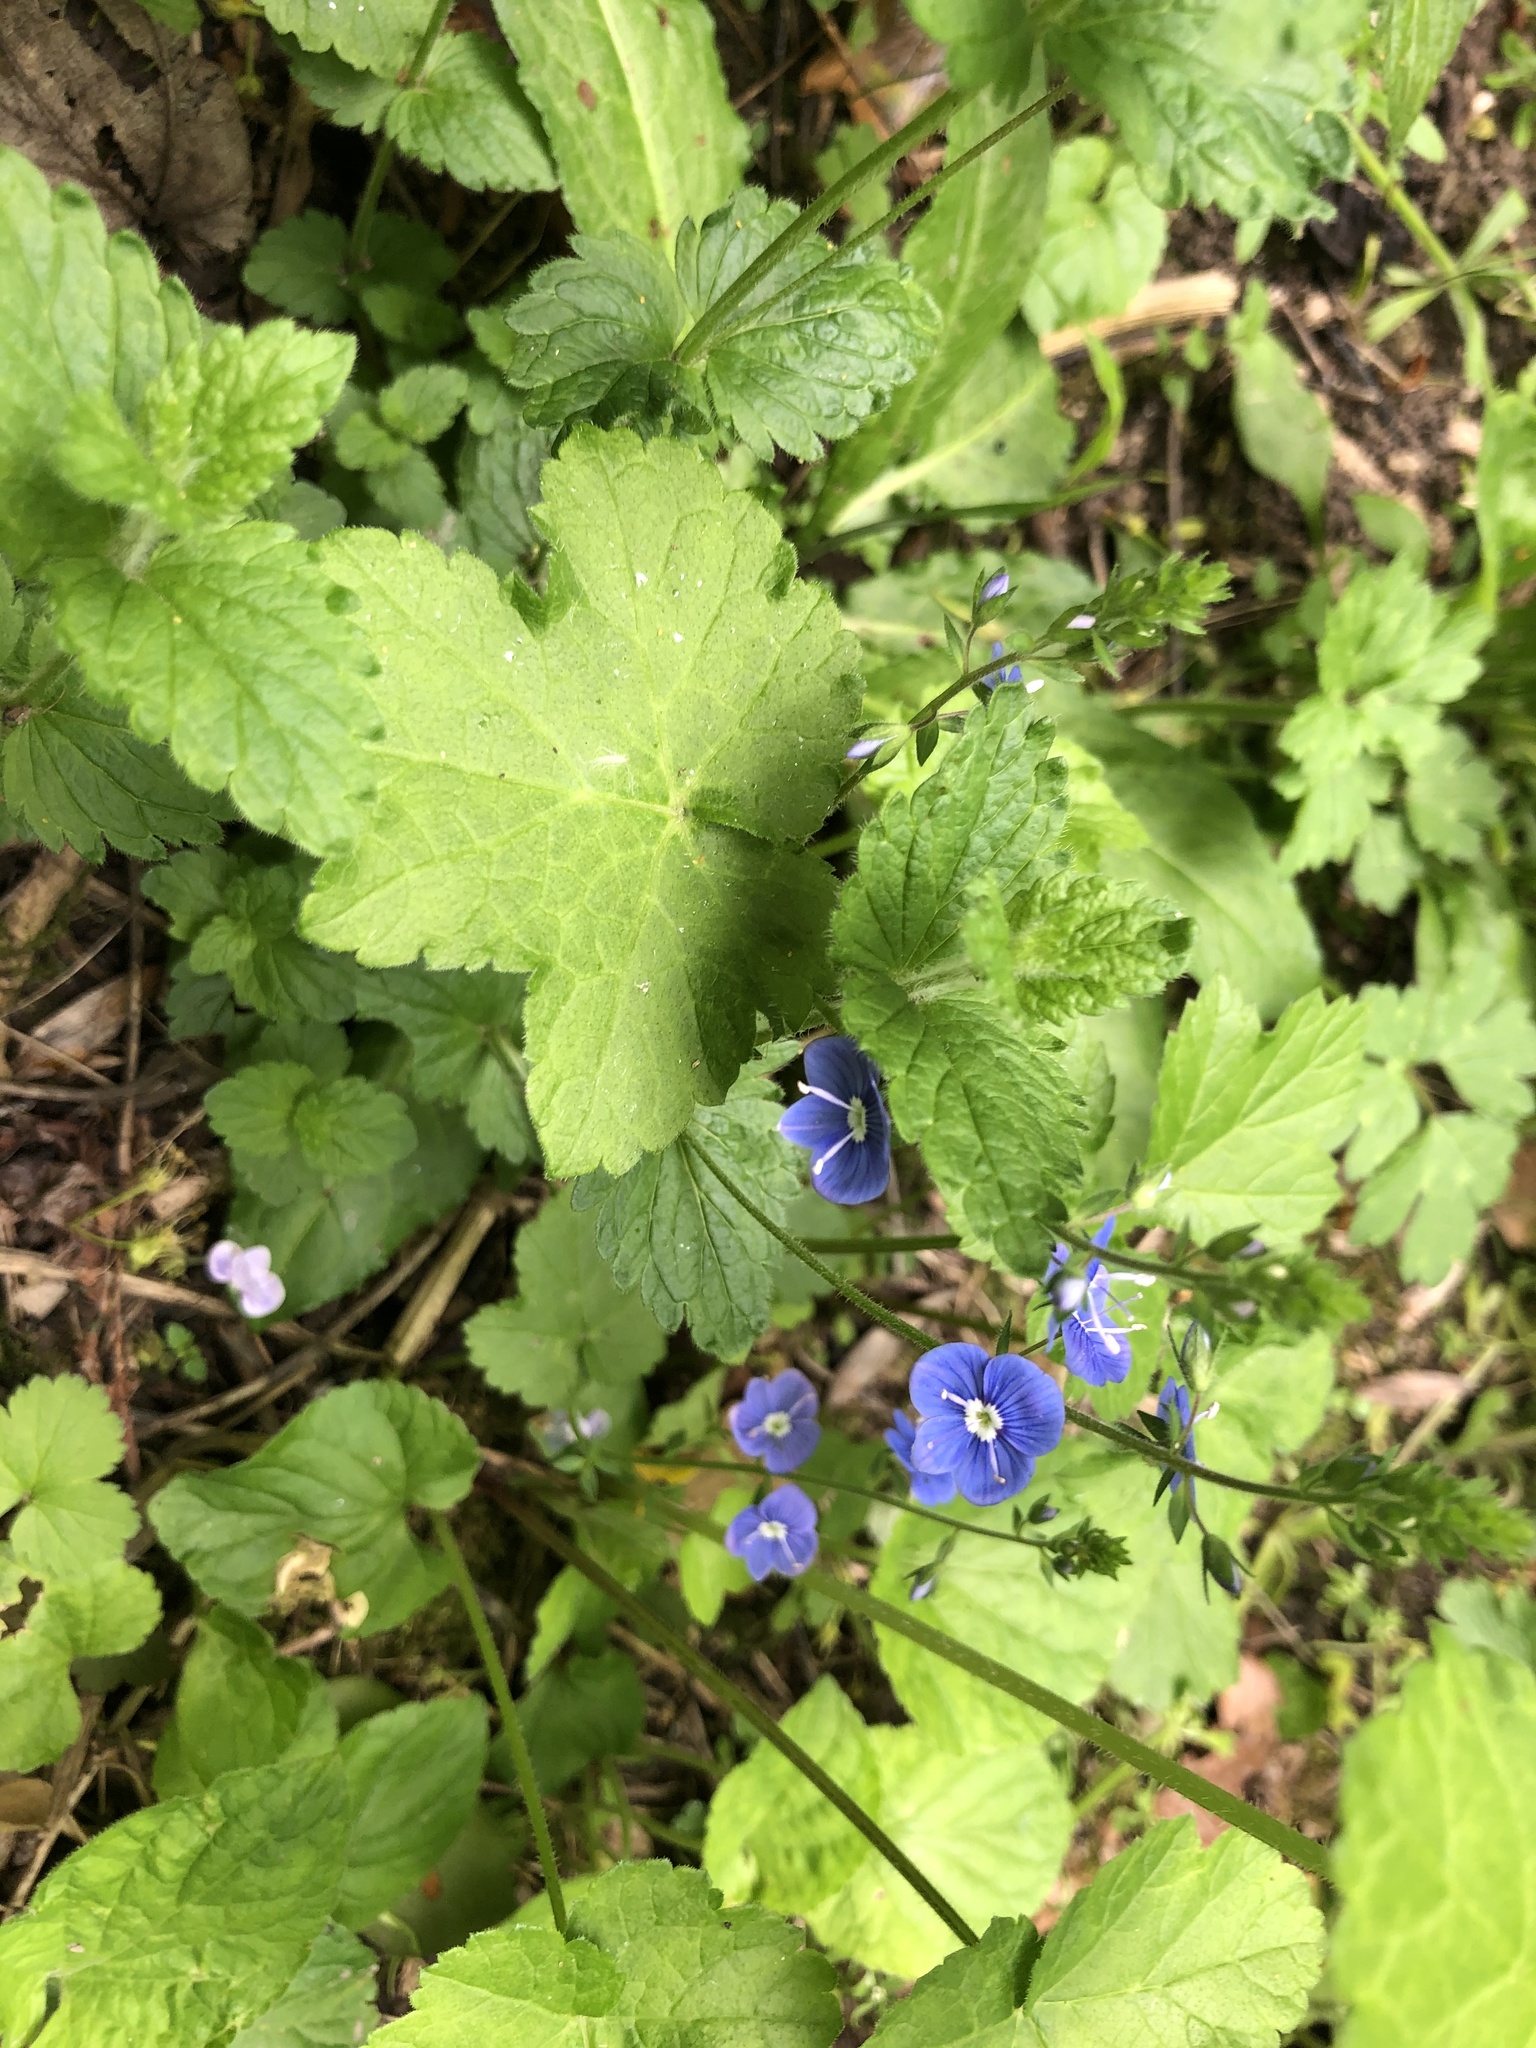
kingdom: Plantae
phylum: Tracheophyta
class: Magnoliopsida
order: Lamiales
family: Plantaginaceae
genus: Veronica
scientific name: Veronica chamaedrys
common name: Germander speedwell
